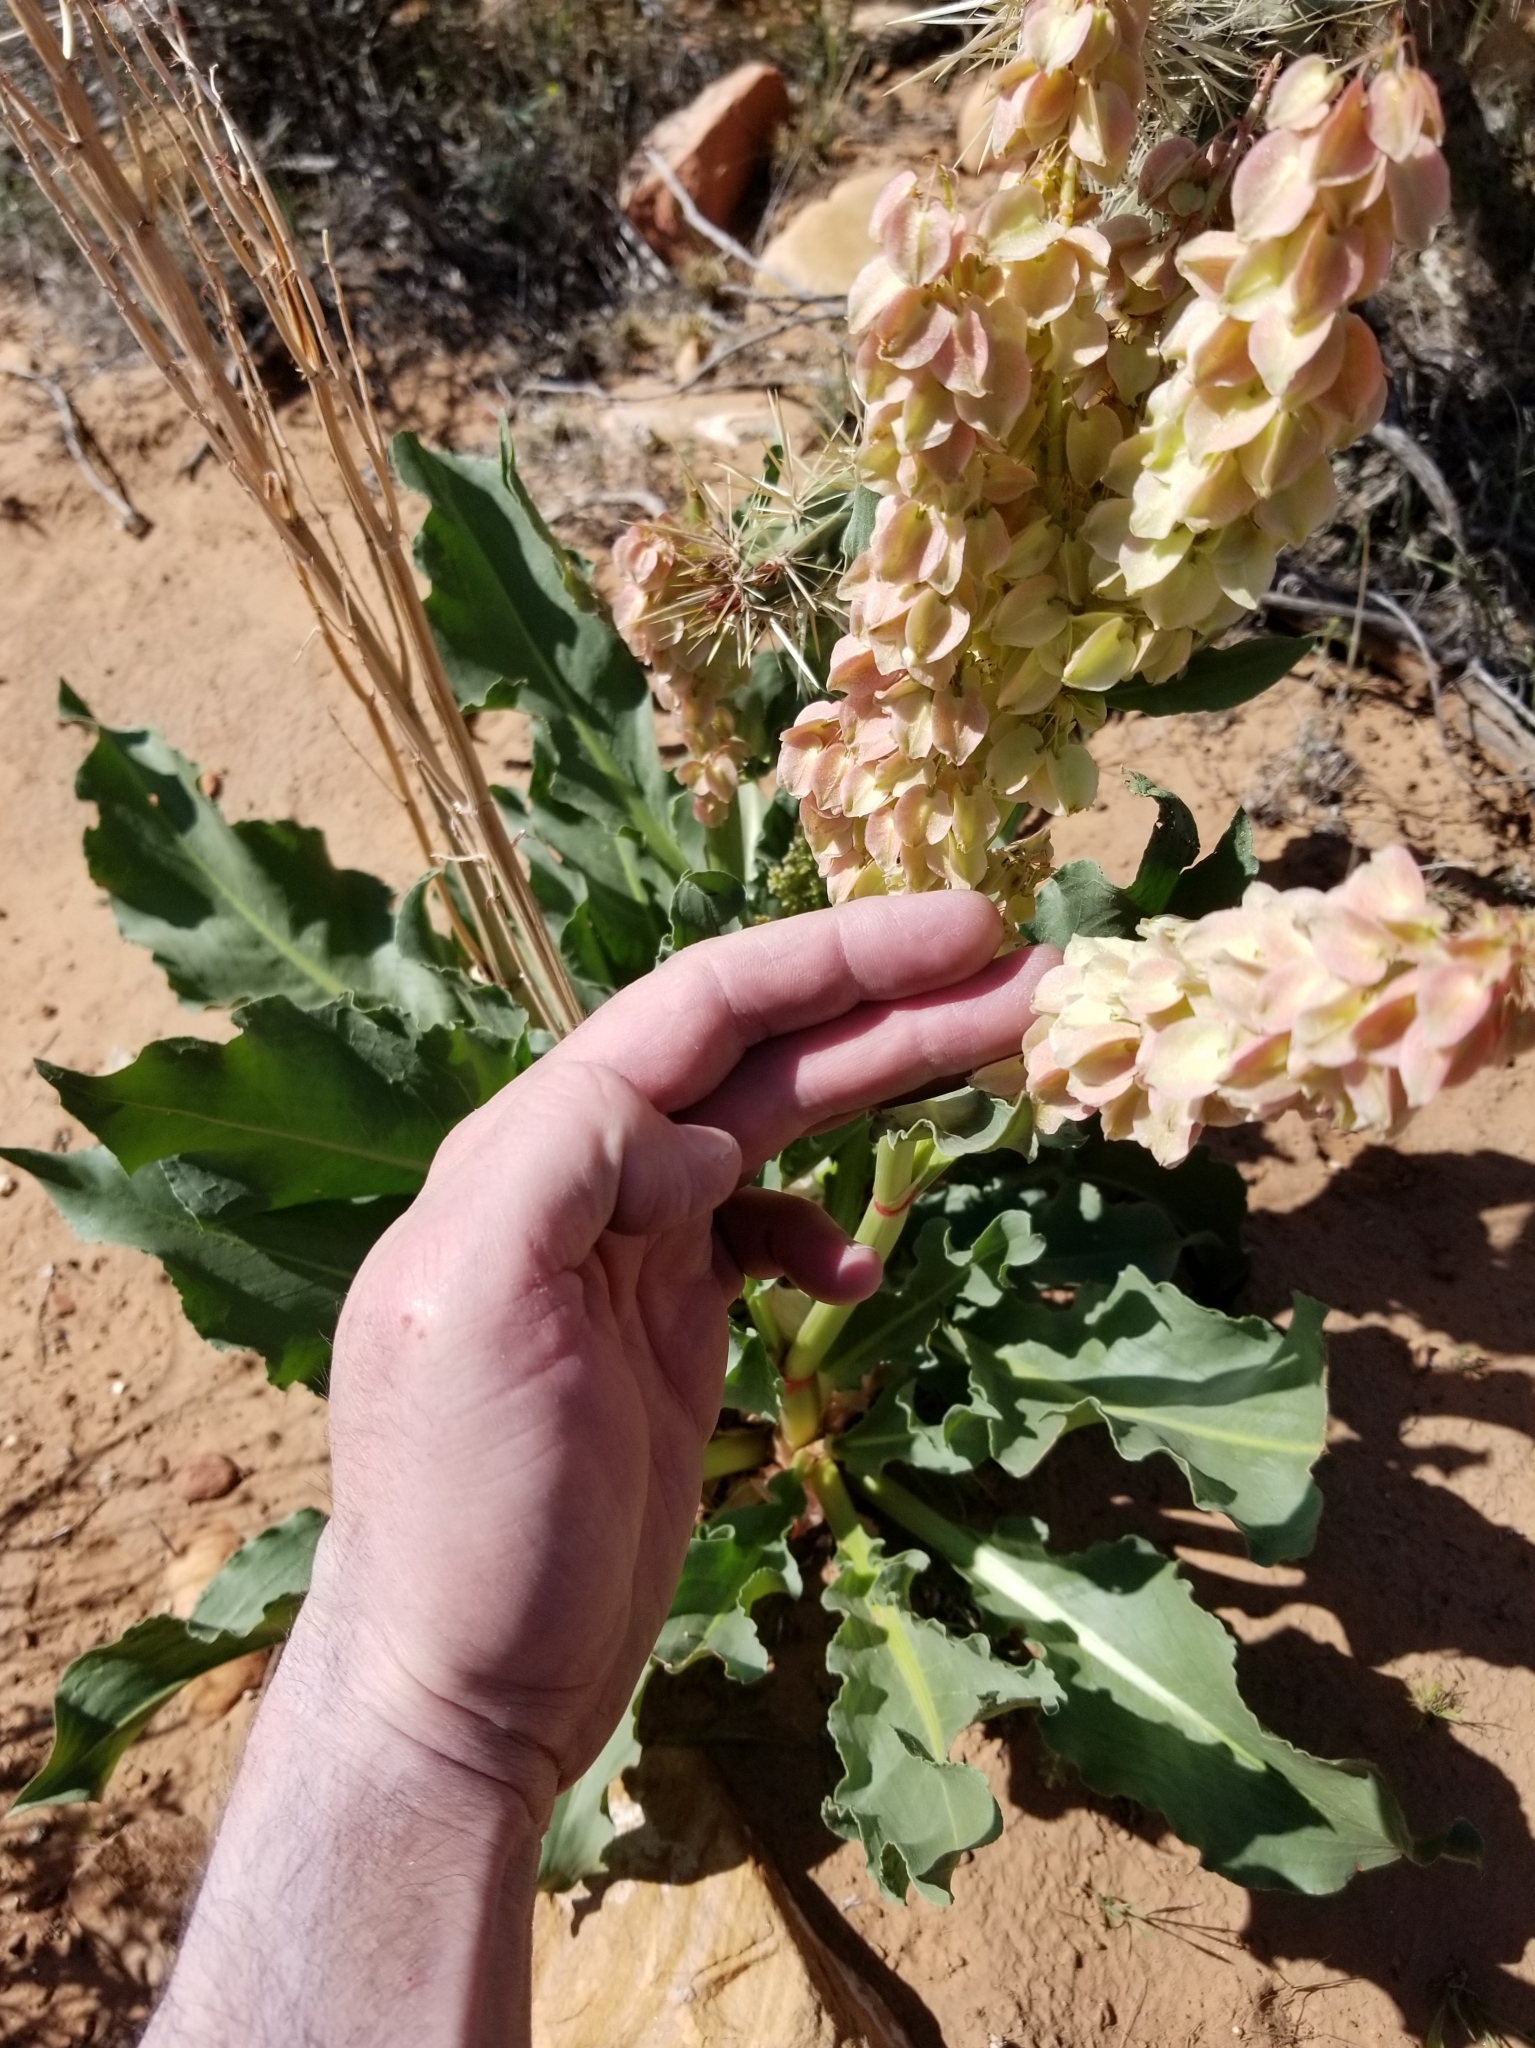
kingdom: Plantae
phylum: Tracheophyta
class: Magnoliopsida
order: Caryophyllales
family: Polygonaceae
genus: Rumex
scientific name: Rumex hymenosepalus
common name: Ganagra
